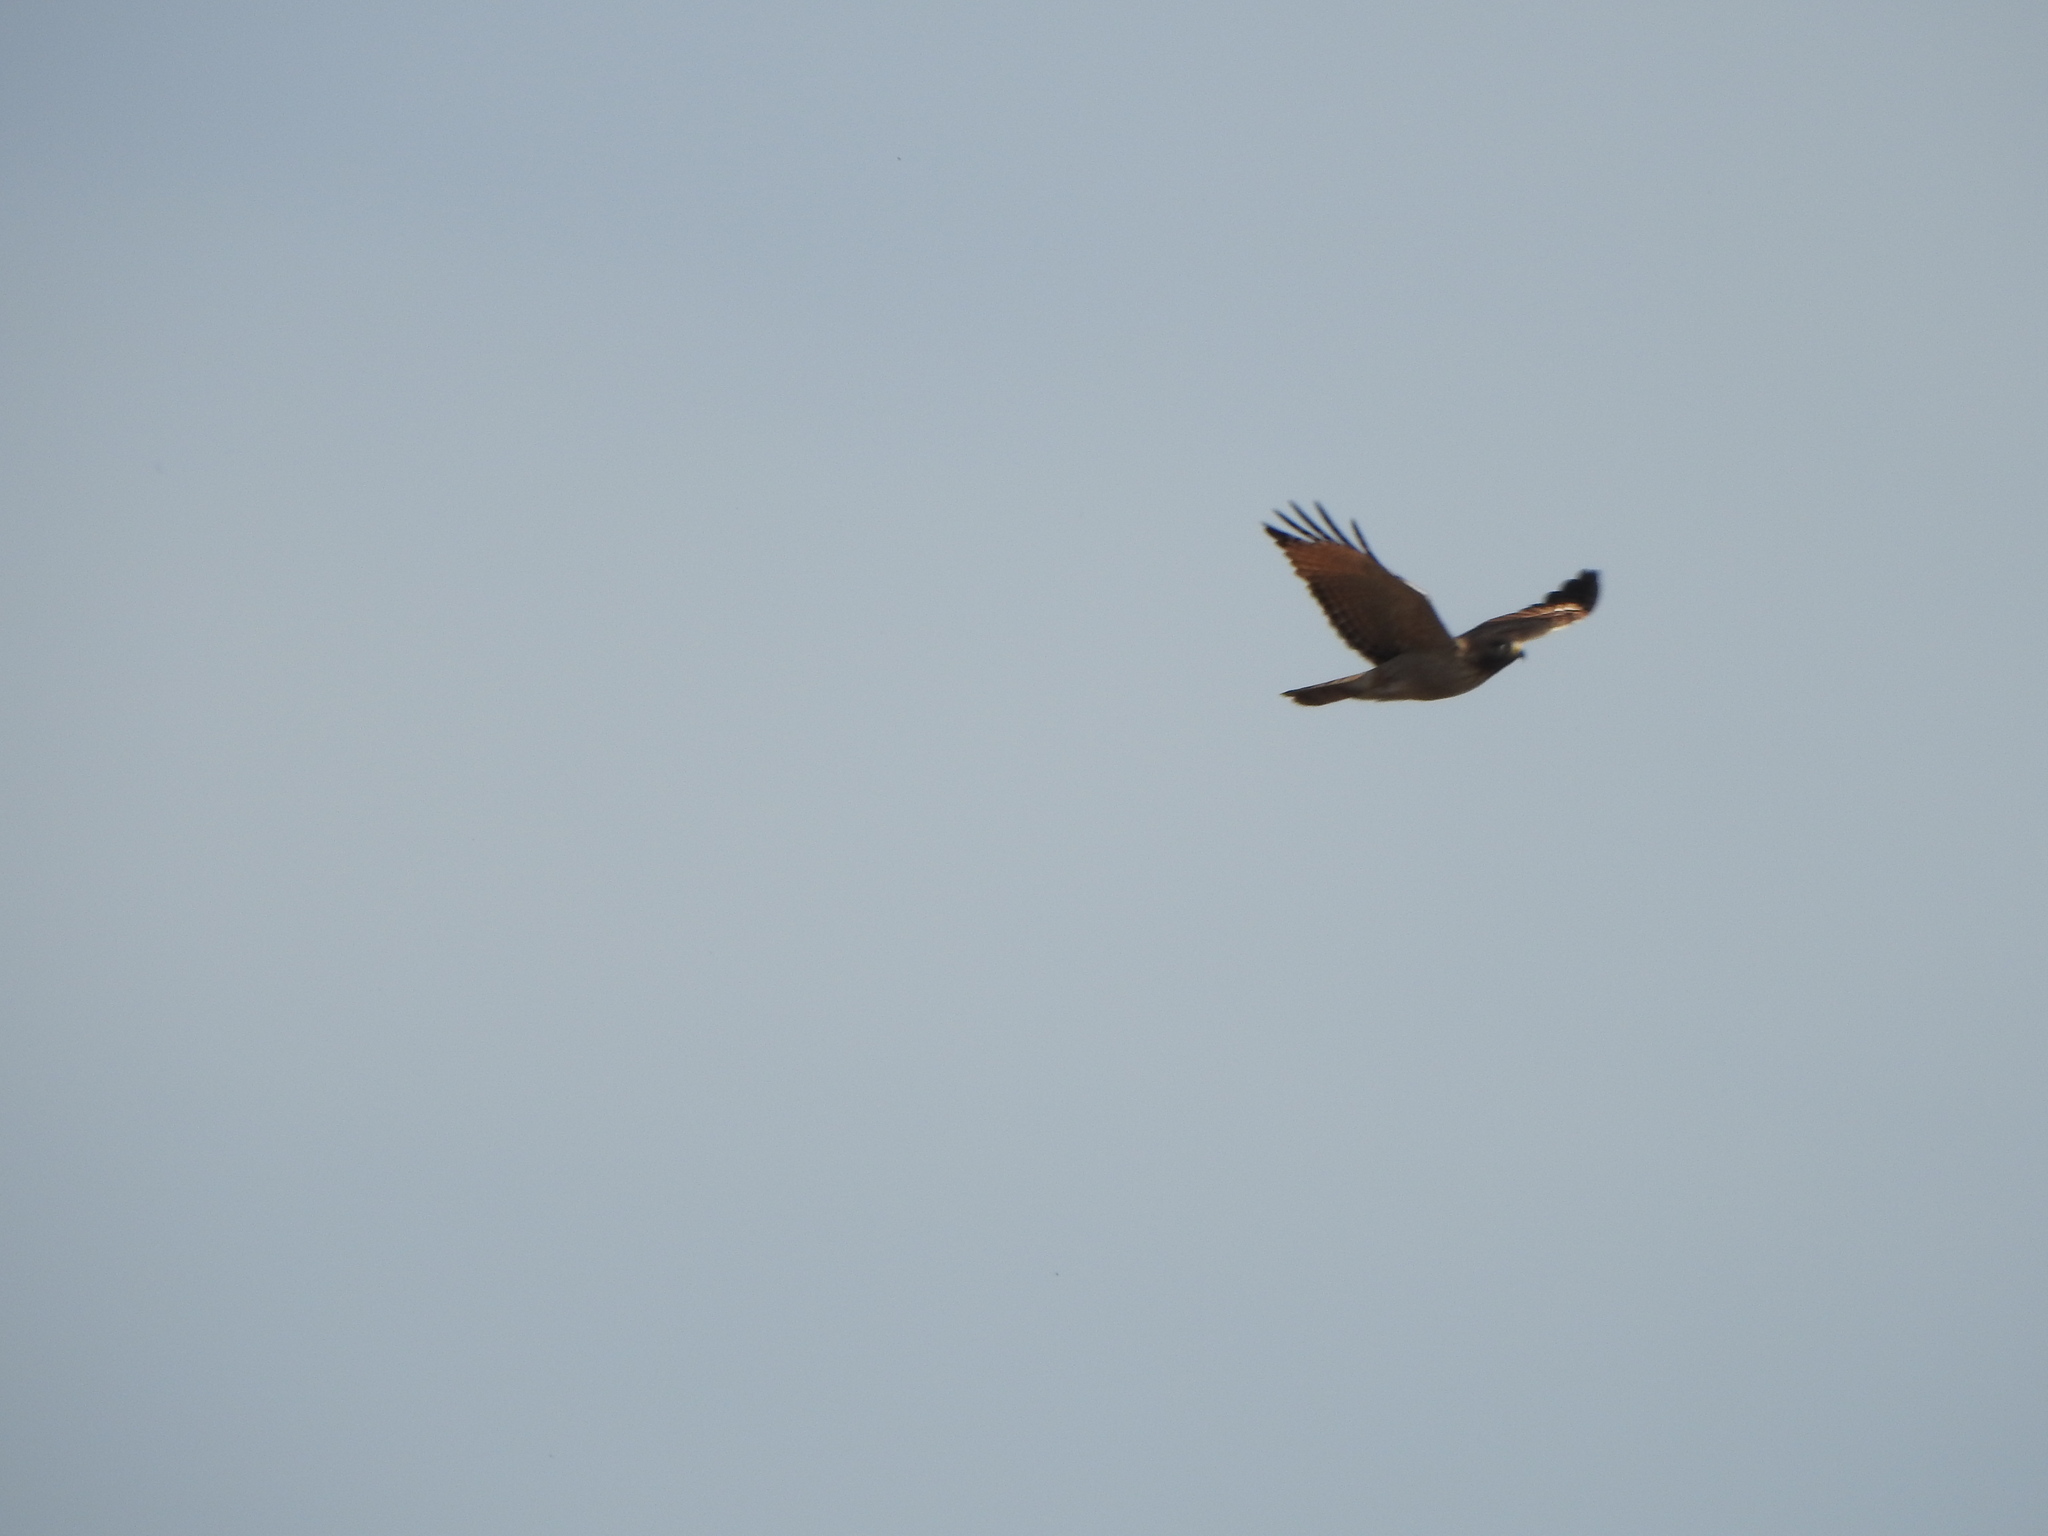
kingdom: Animalia
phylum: Chordata
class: Aves
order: Accipitriformes
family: Accipitridae
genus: Rupornis
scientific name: Rupornis magnirostris
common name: Roadside hawk
